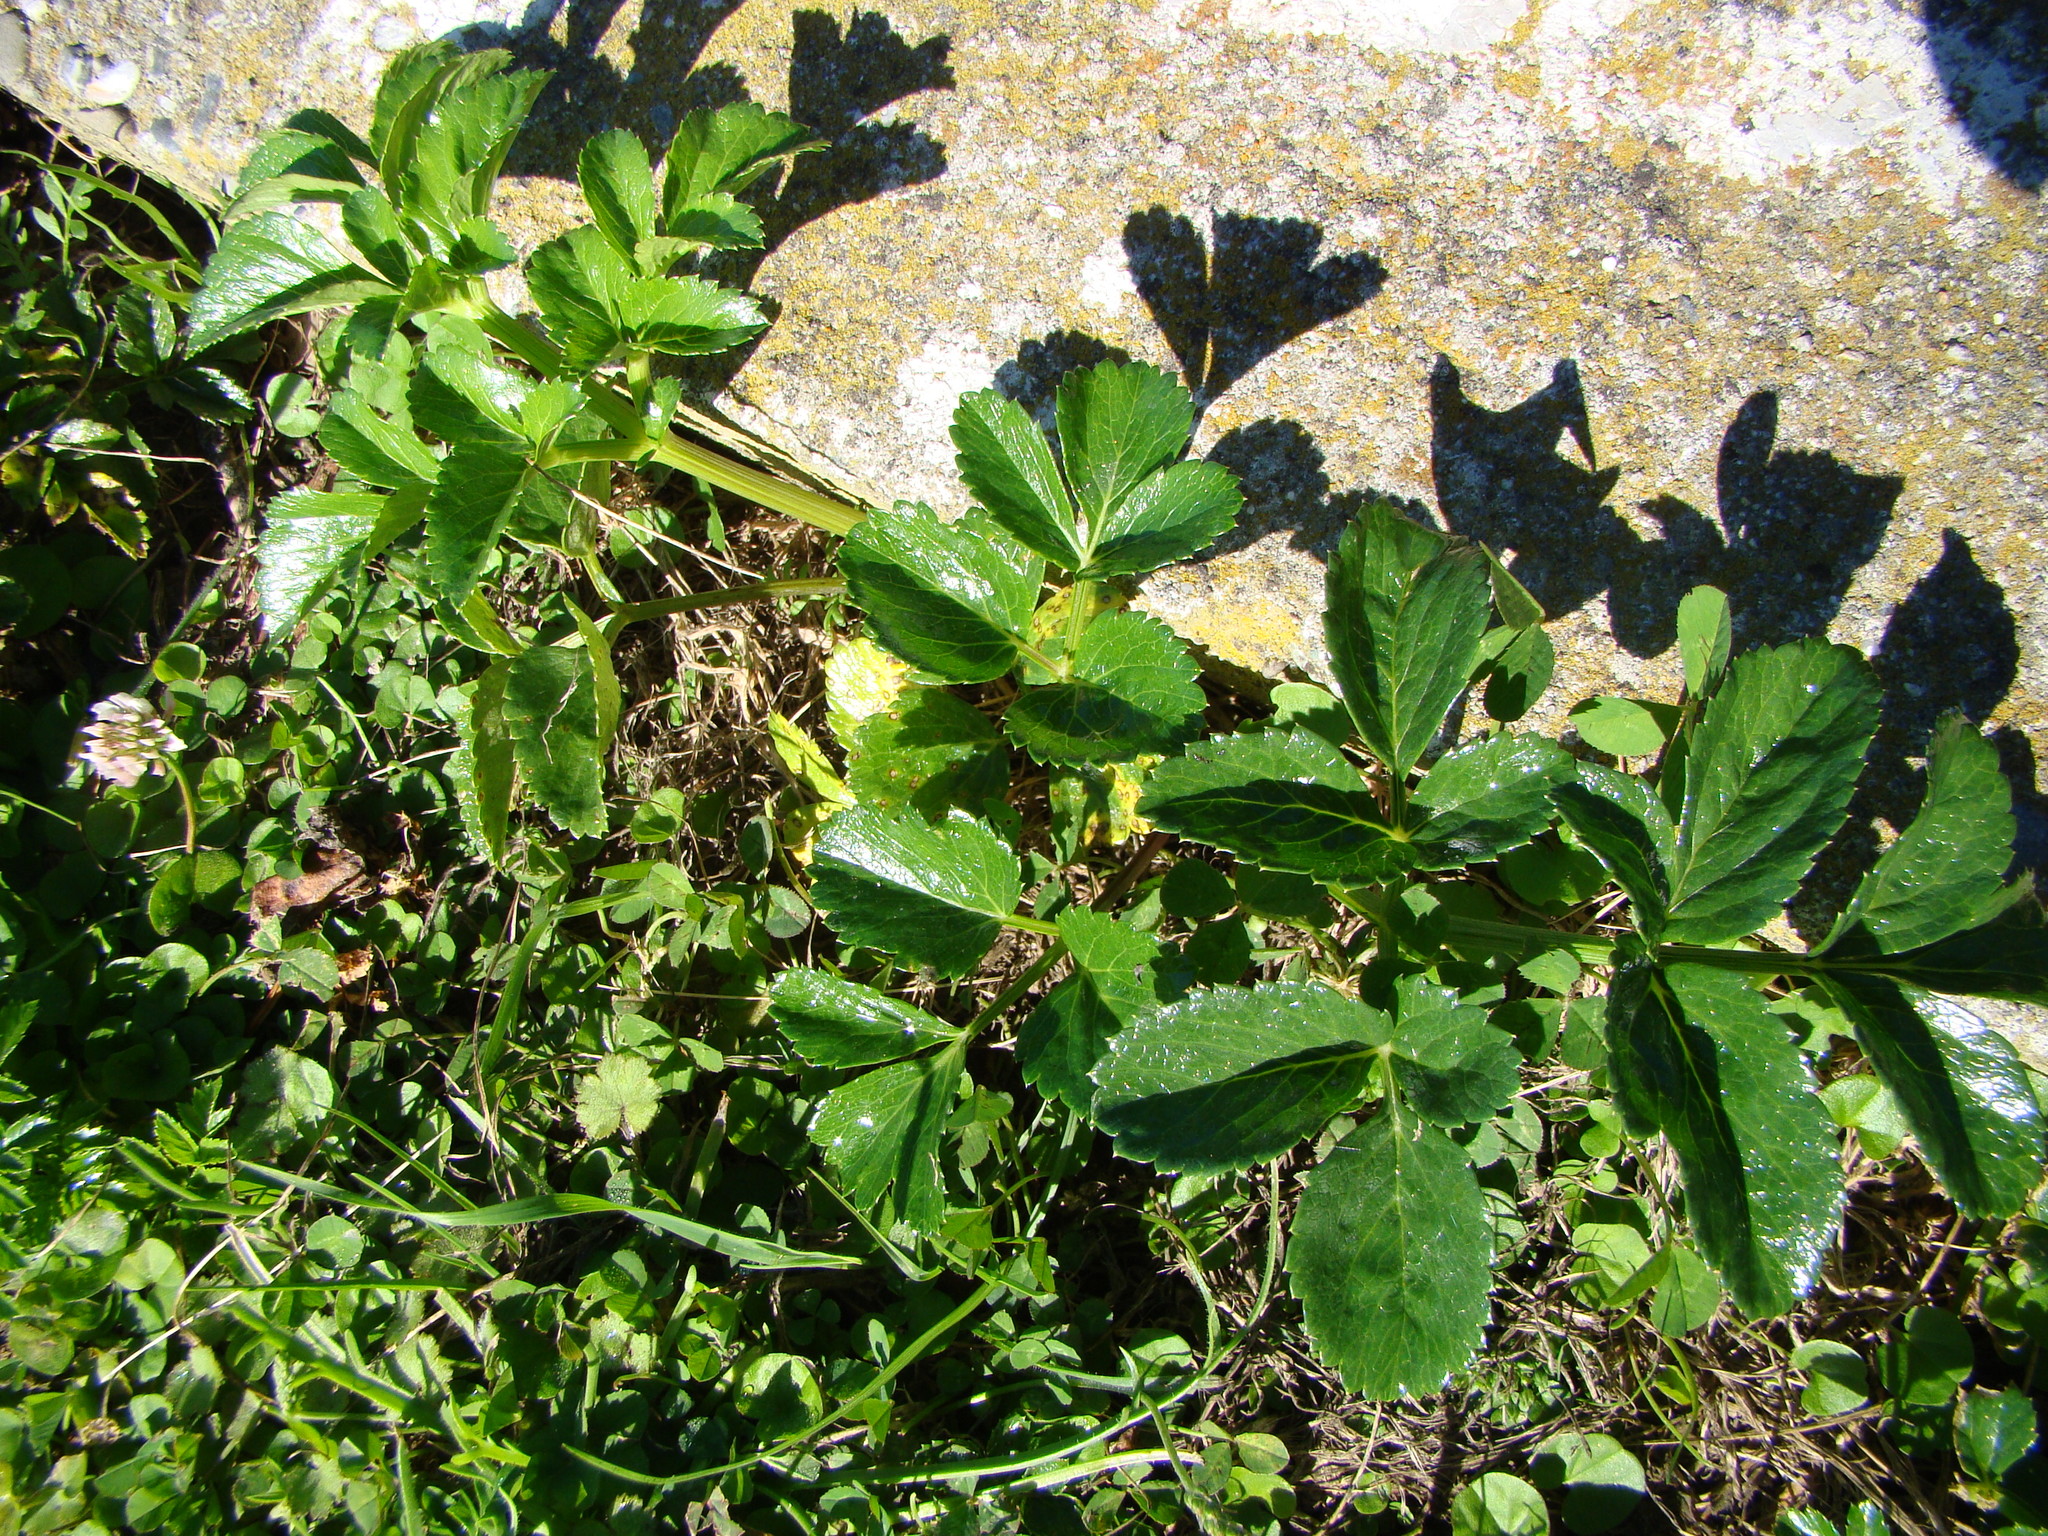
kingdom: Plantae
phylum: Tracheophyta
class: Magnoliopsida
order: Apiales
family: Apiaceae
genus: Angelica
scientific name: Angelica pachycarpa
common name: Portuguese angelica
